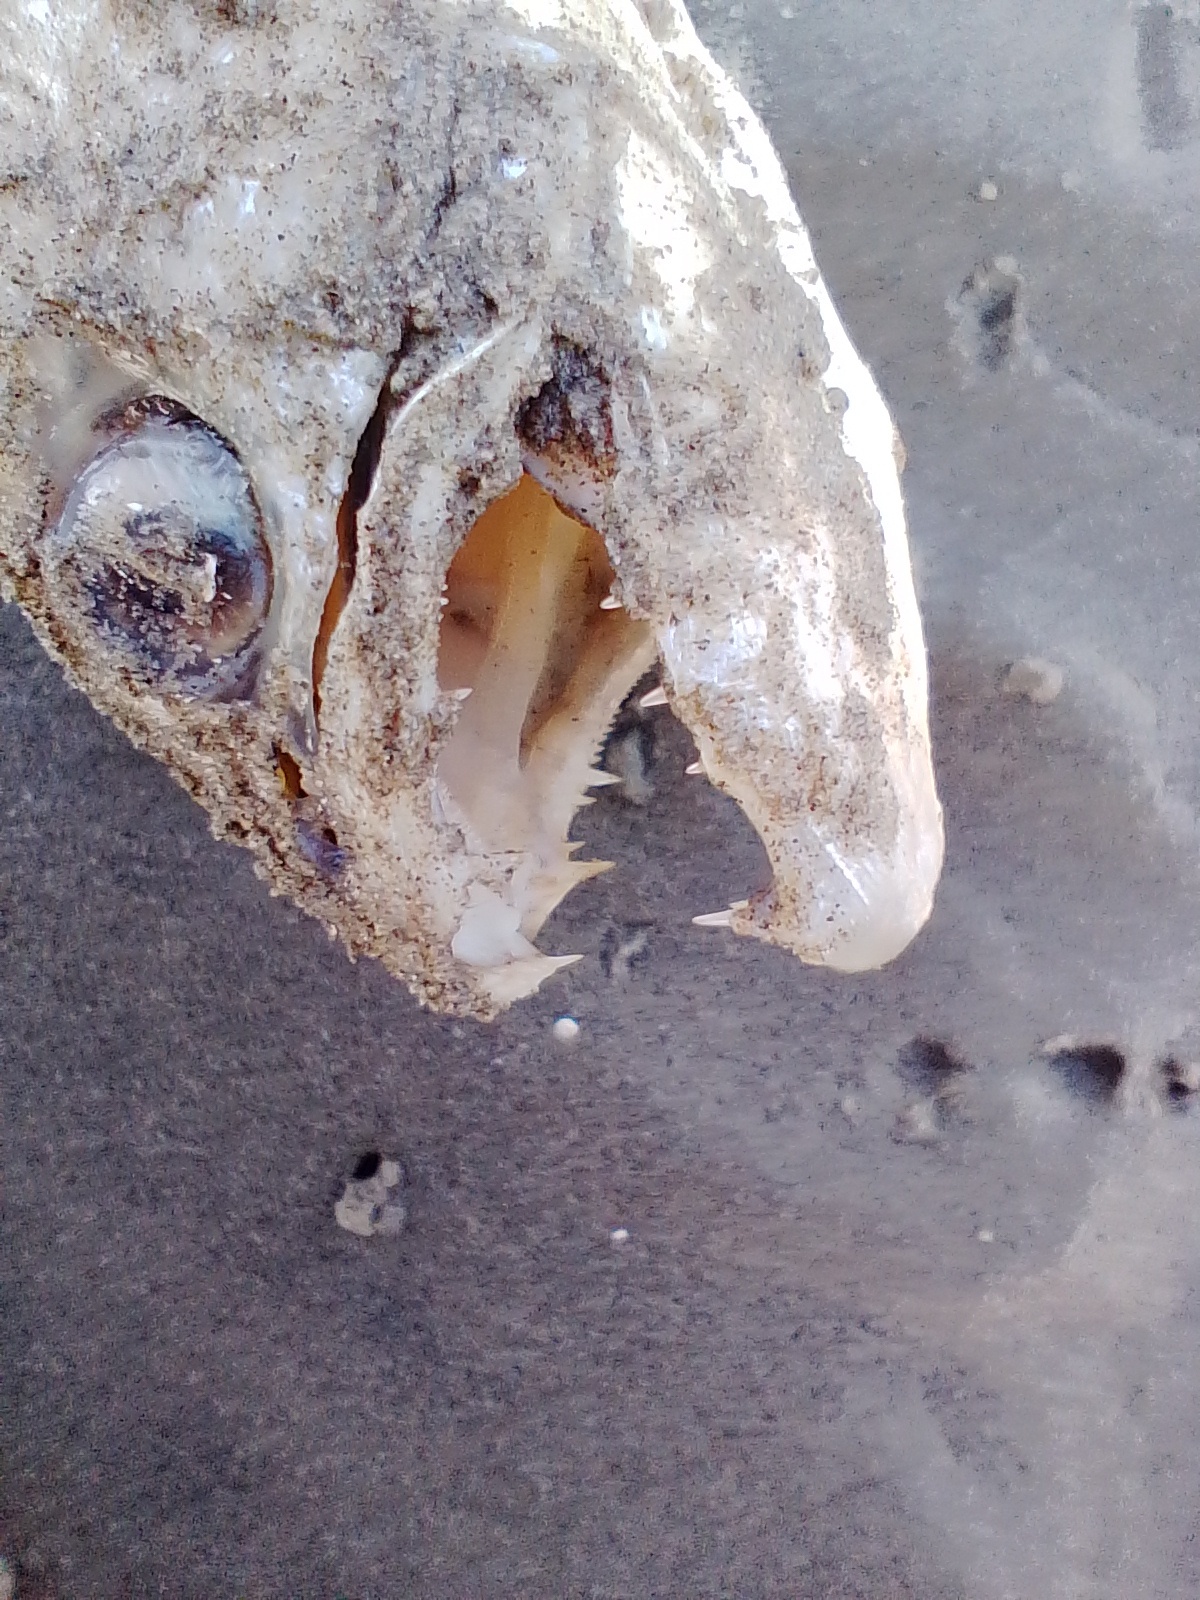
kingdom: Animalia
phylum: Chordata
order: Characiformes
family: Erythrinidae
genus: Hoplias
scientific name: Hoplias argentinensis
